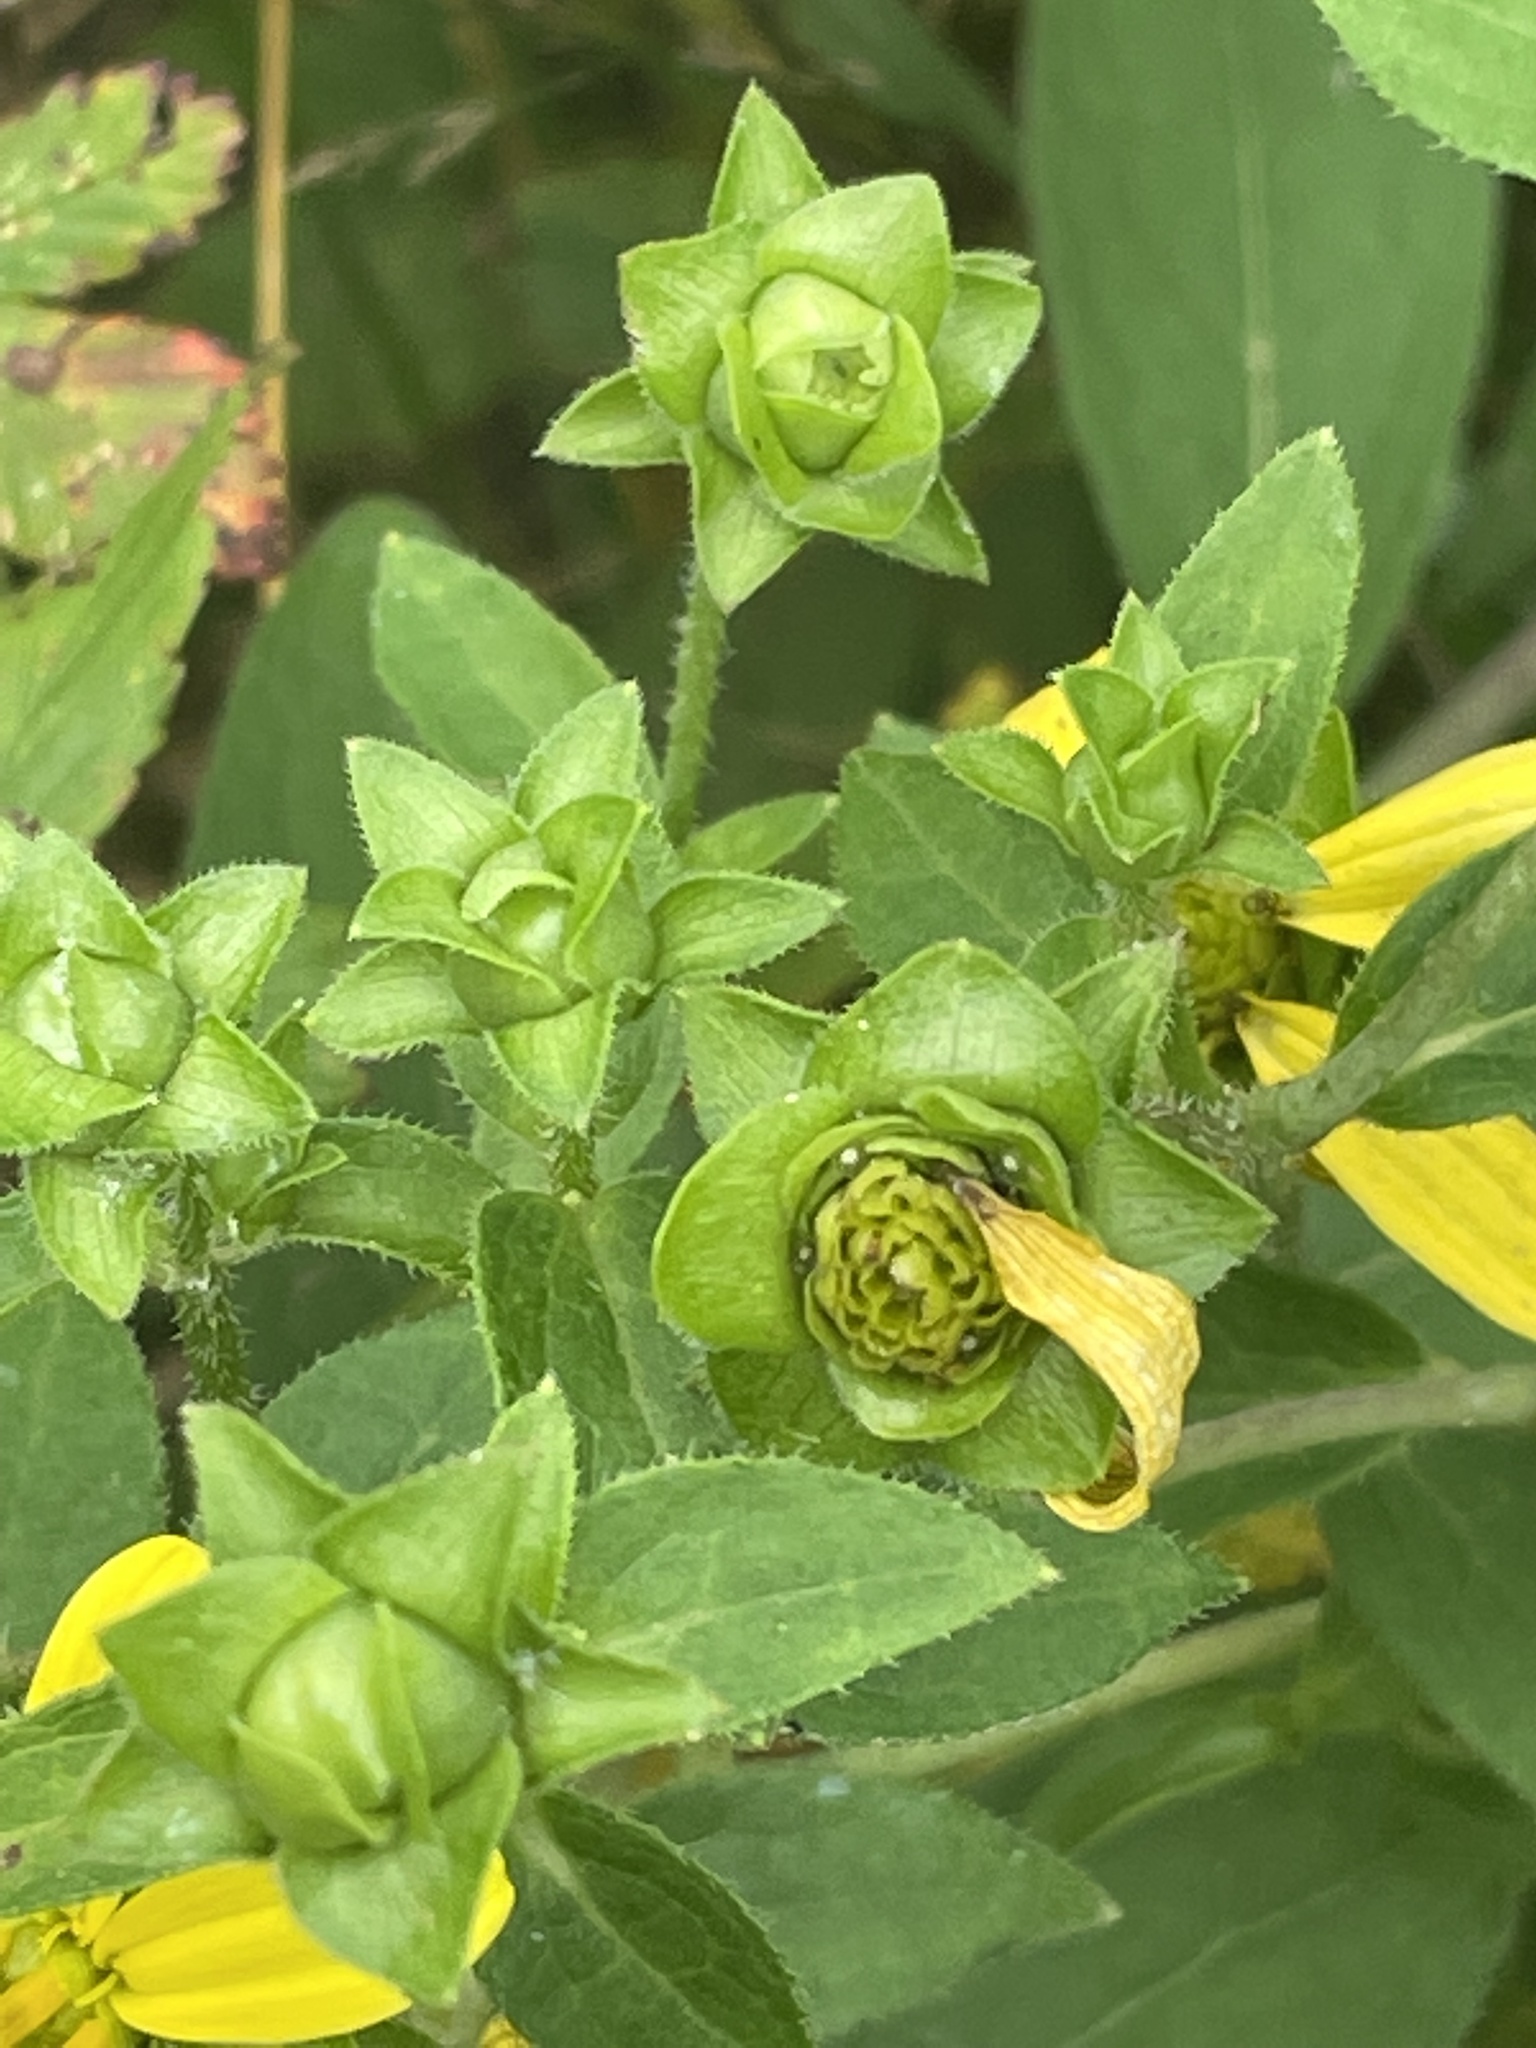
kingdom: Plantae
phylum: Tracheophyta
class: Magnoliopsida
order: Asterales
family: Asteraceae
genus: Silphium
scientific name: Silphium asteriscus
